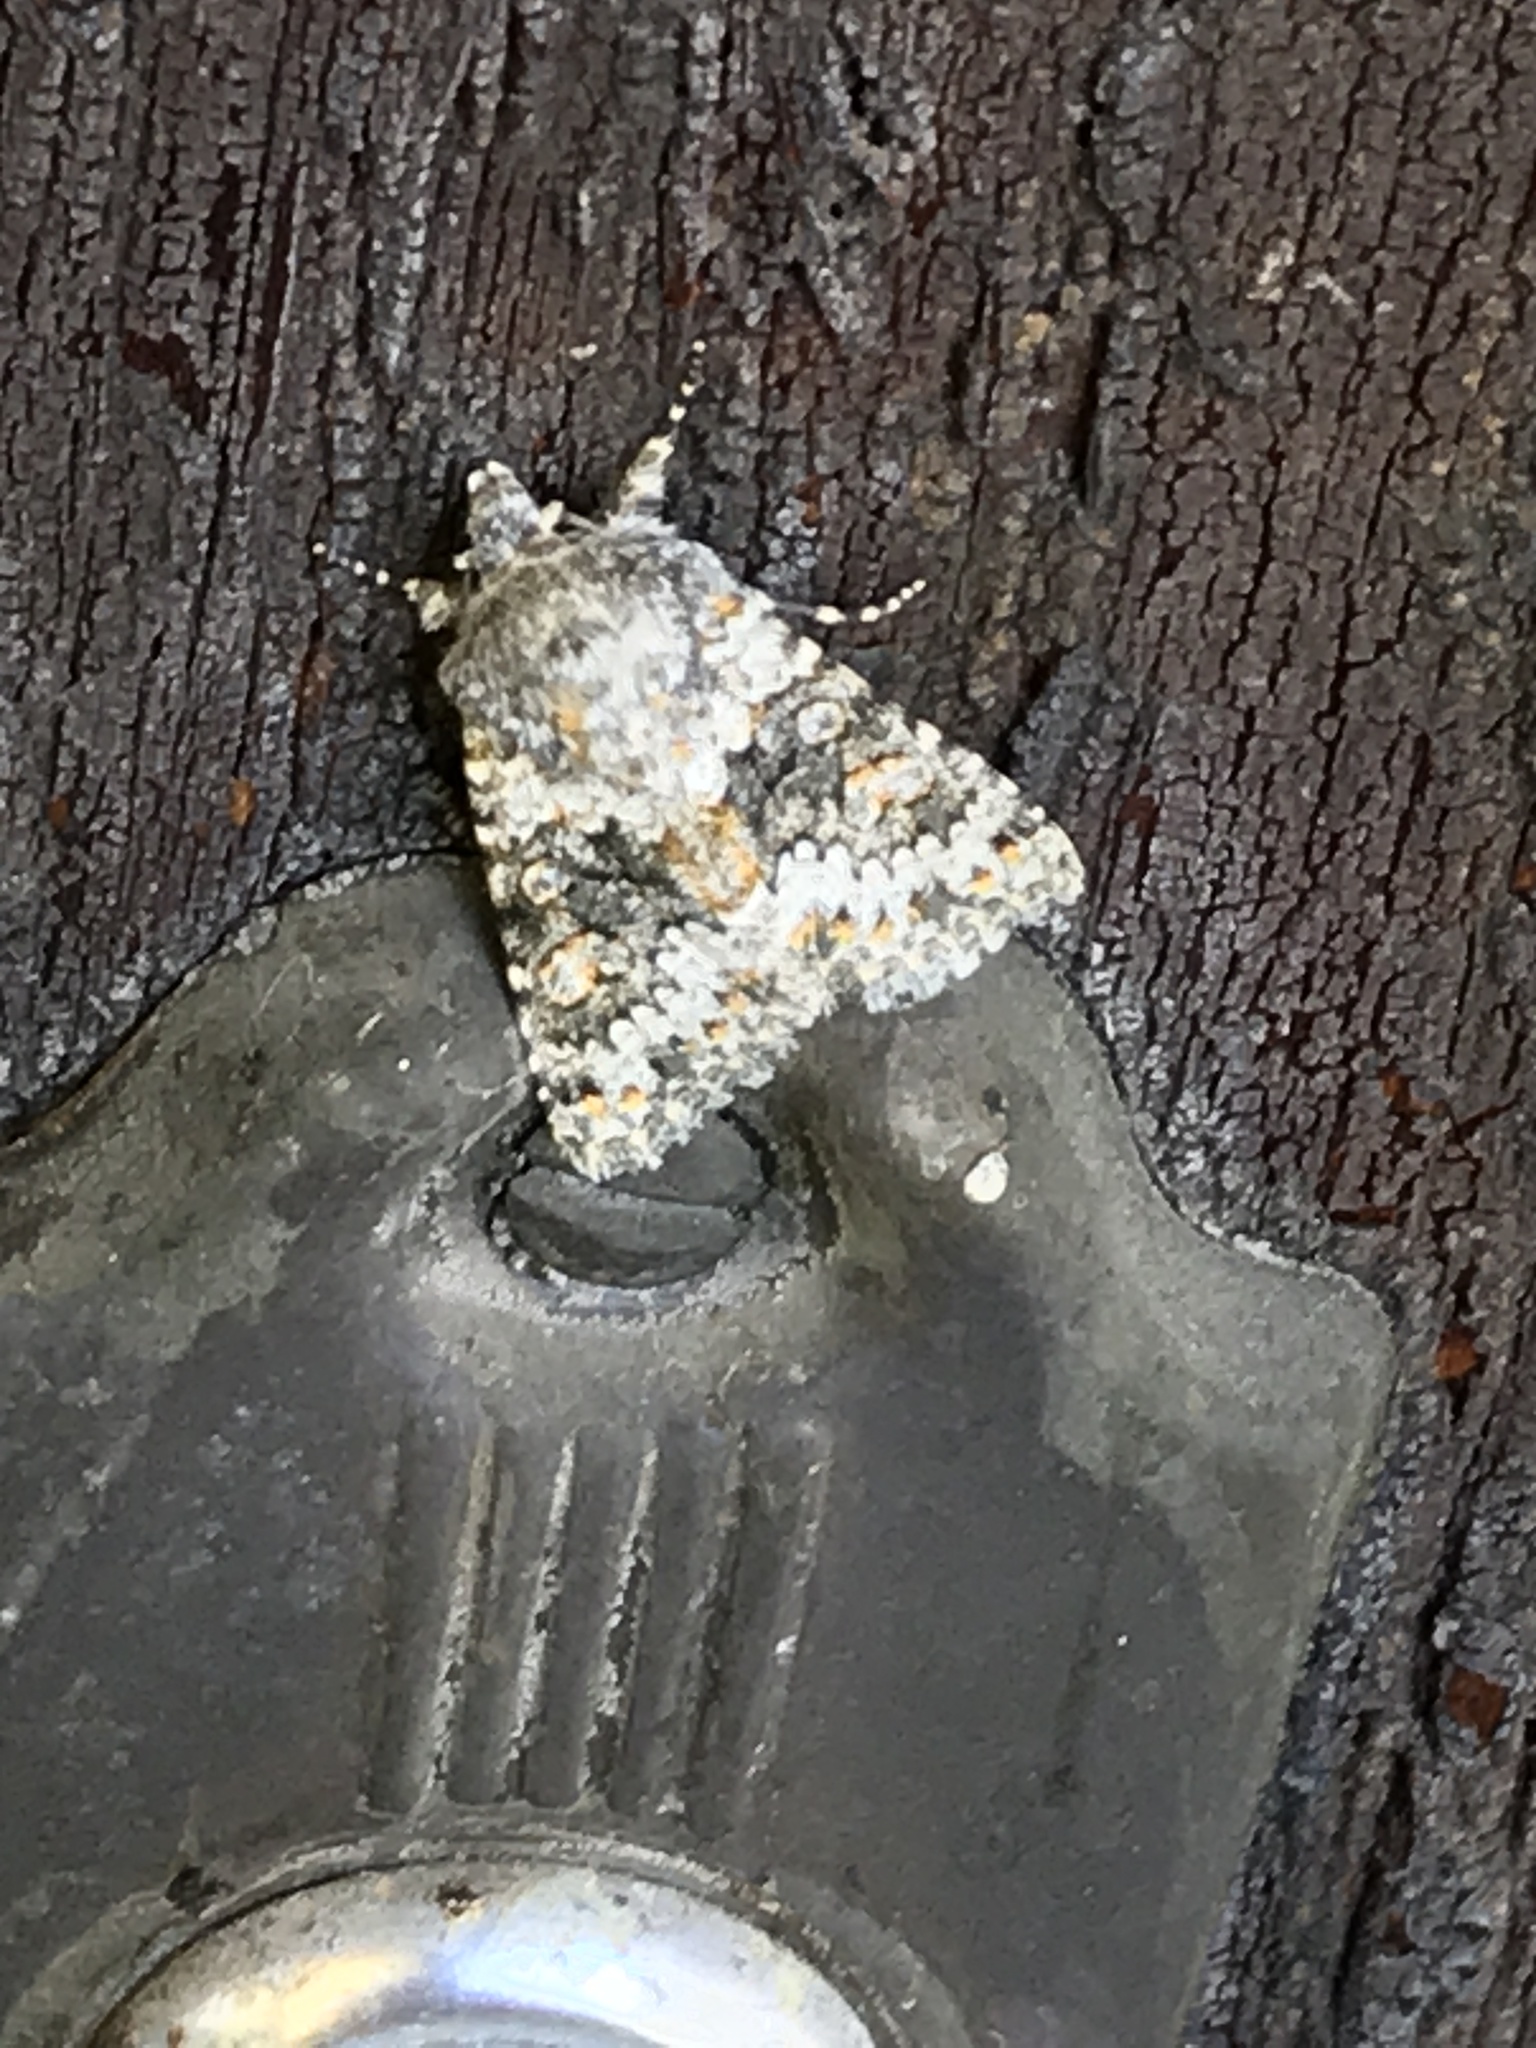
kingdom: Animalia
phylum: Arthropoda
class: Insecta
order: Lepidoptera
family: Noctuidae
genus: Hecatera
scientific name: Hecatera dysodea
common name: Small ranunculus
